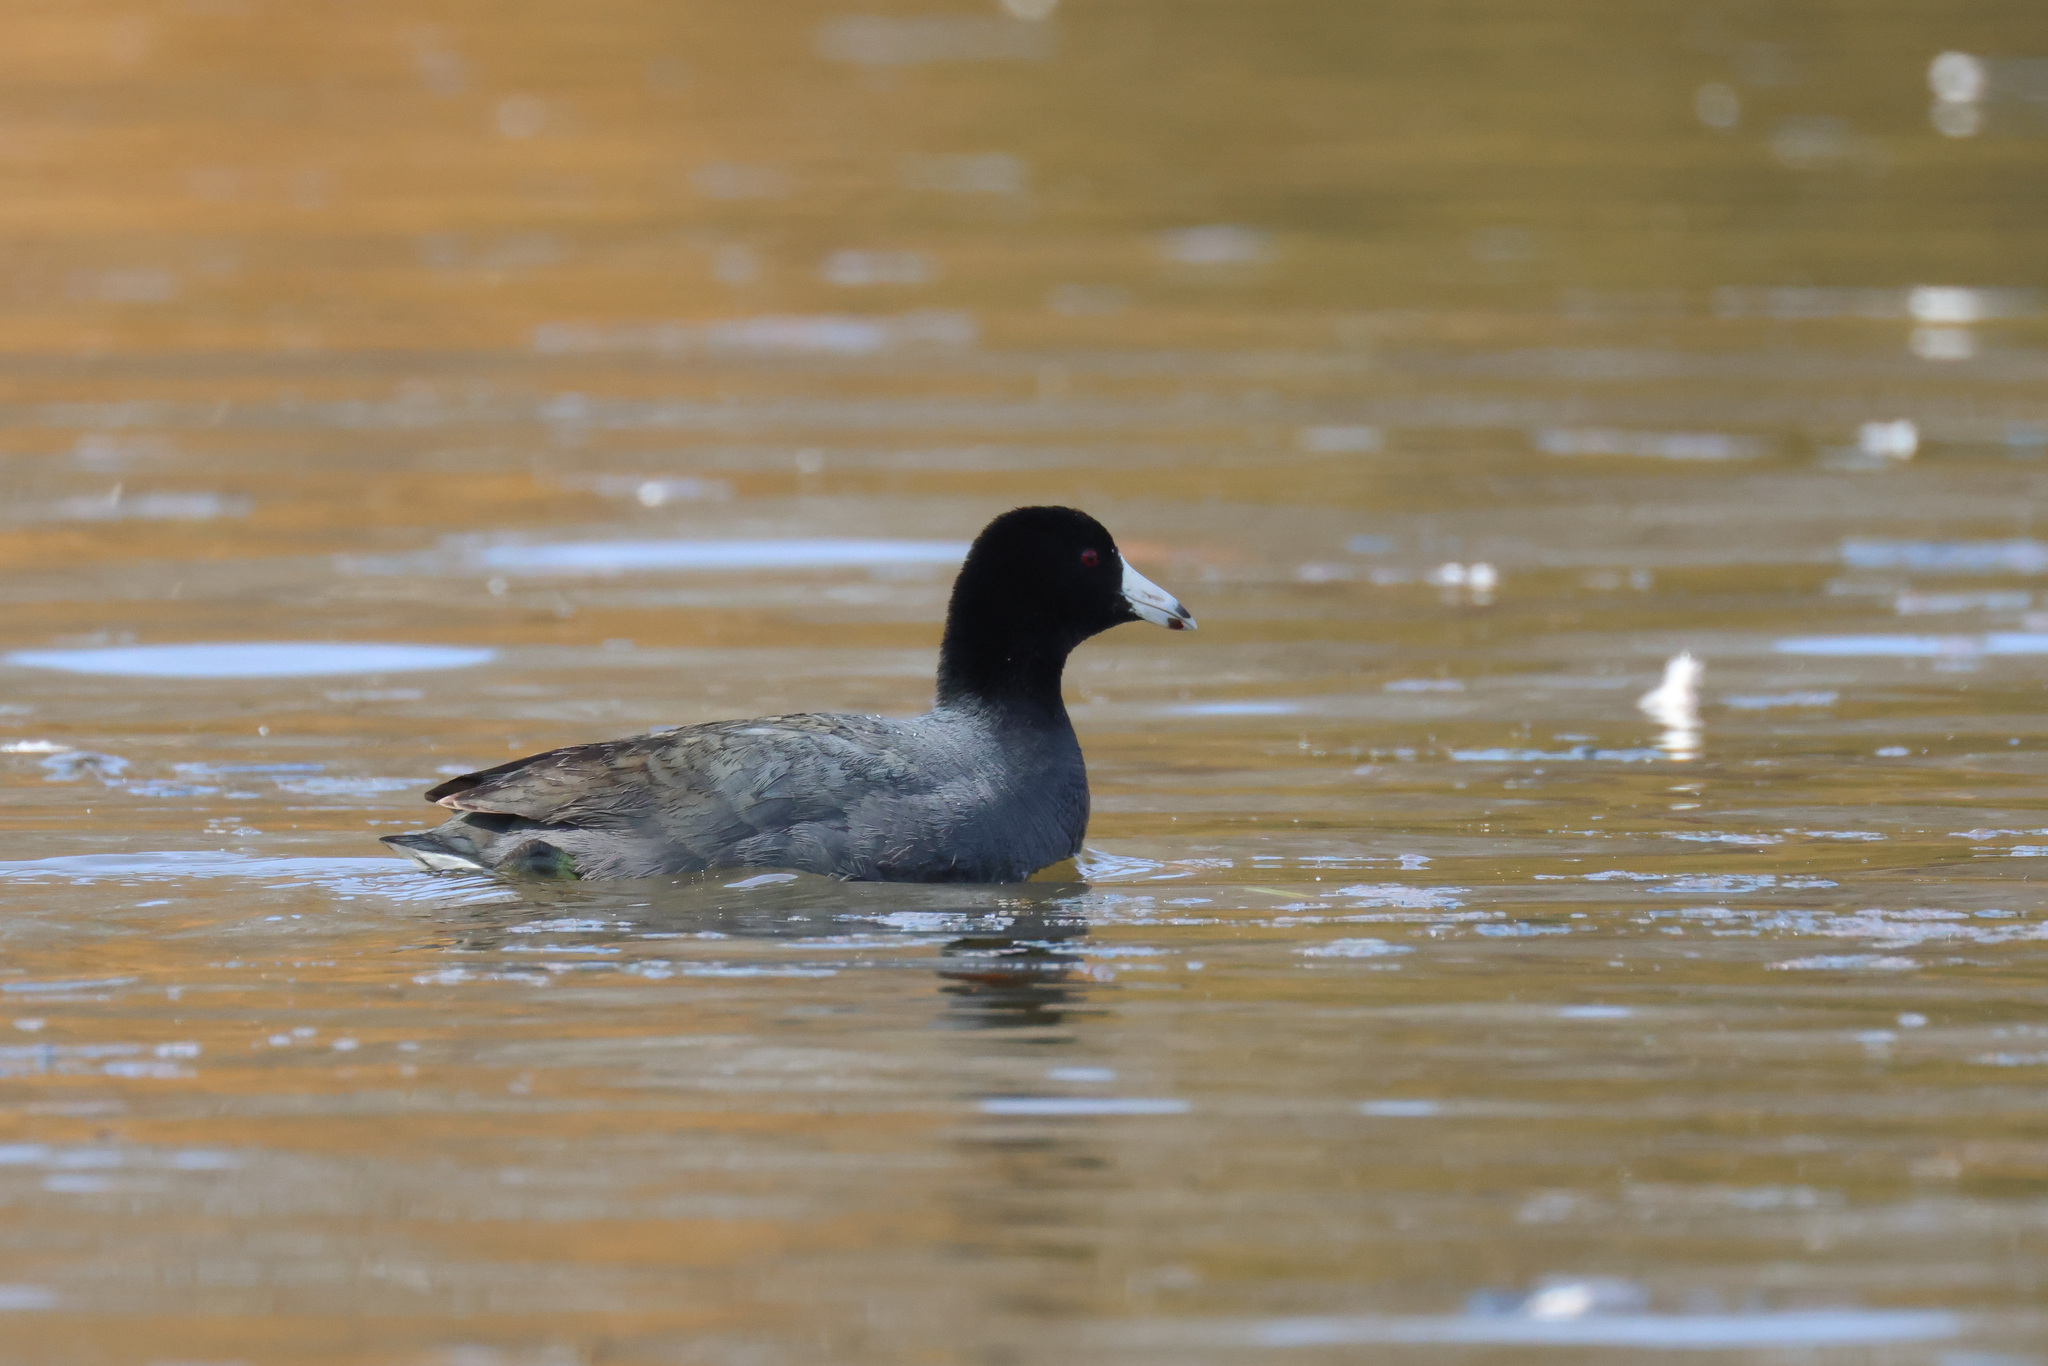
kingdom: Animalia
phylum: Chordata
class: Aves
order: Gruiformes
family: Rallidae
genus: Fulica
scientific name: Fulica americana
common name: American coot
